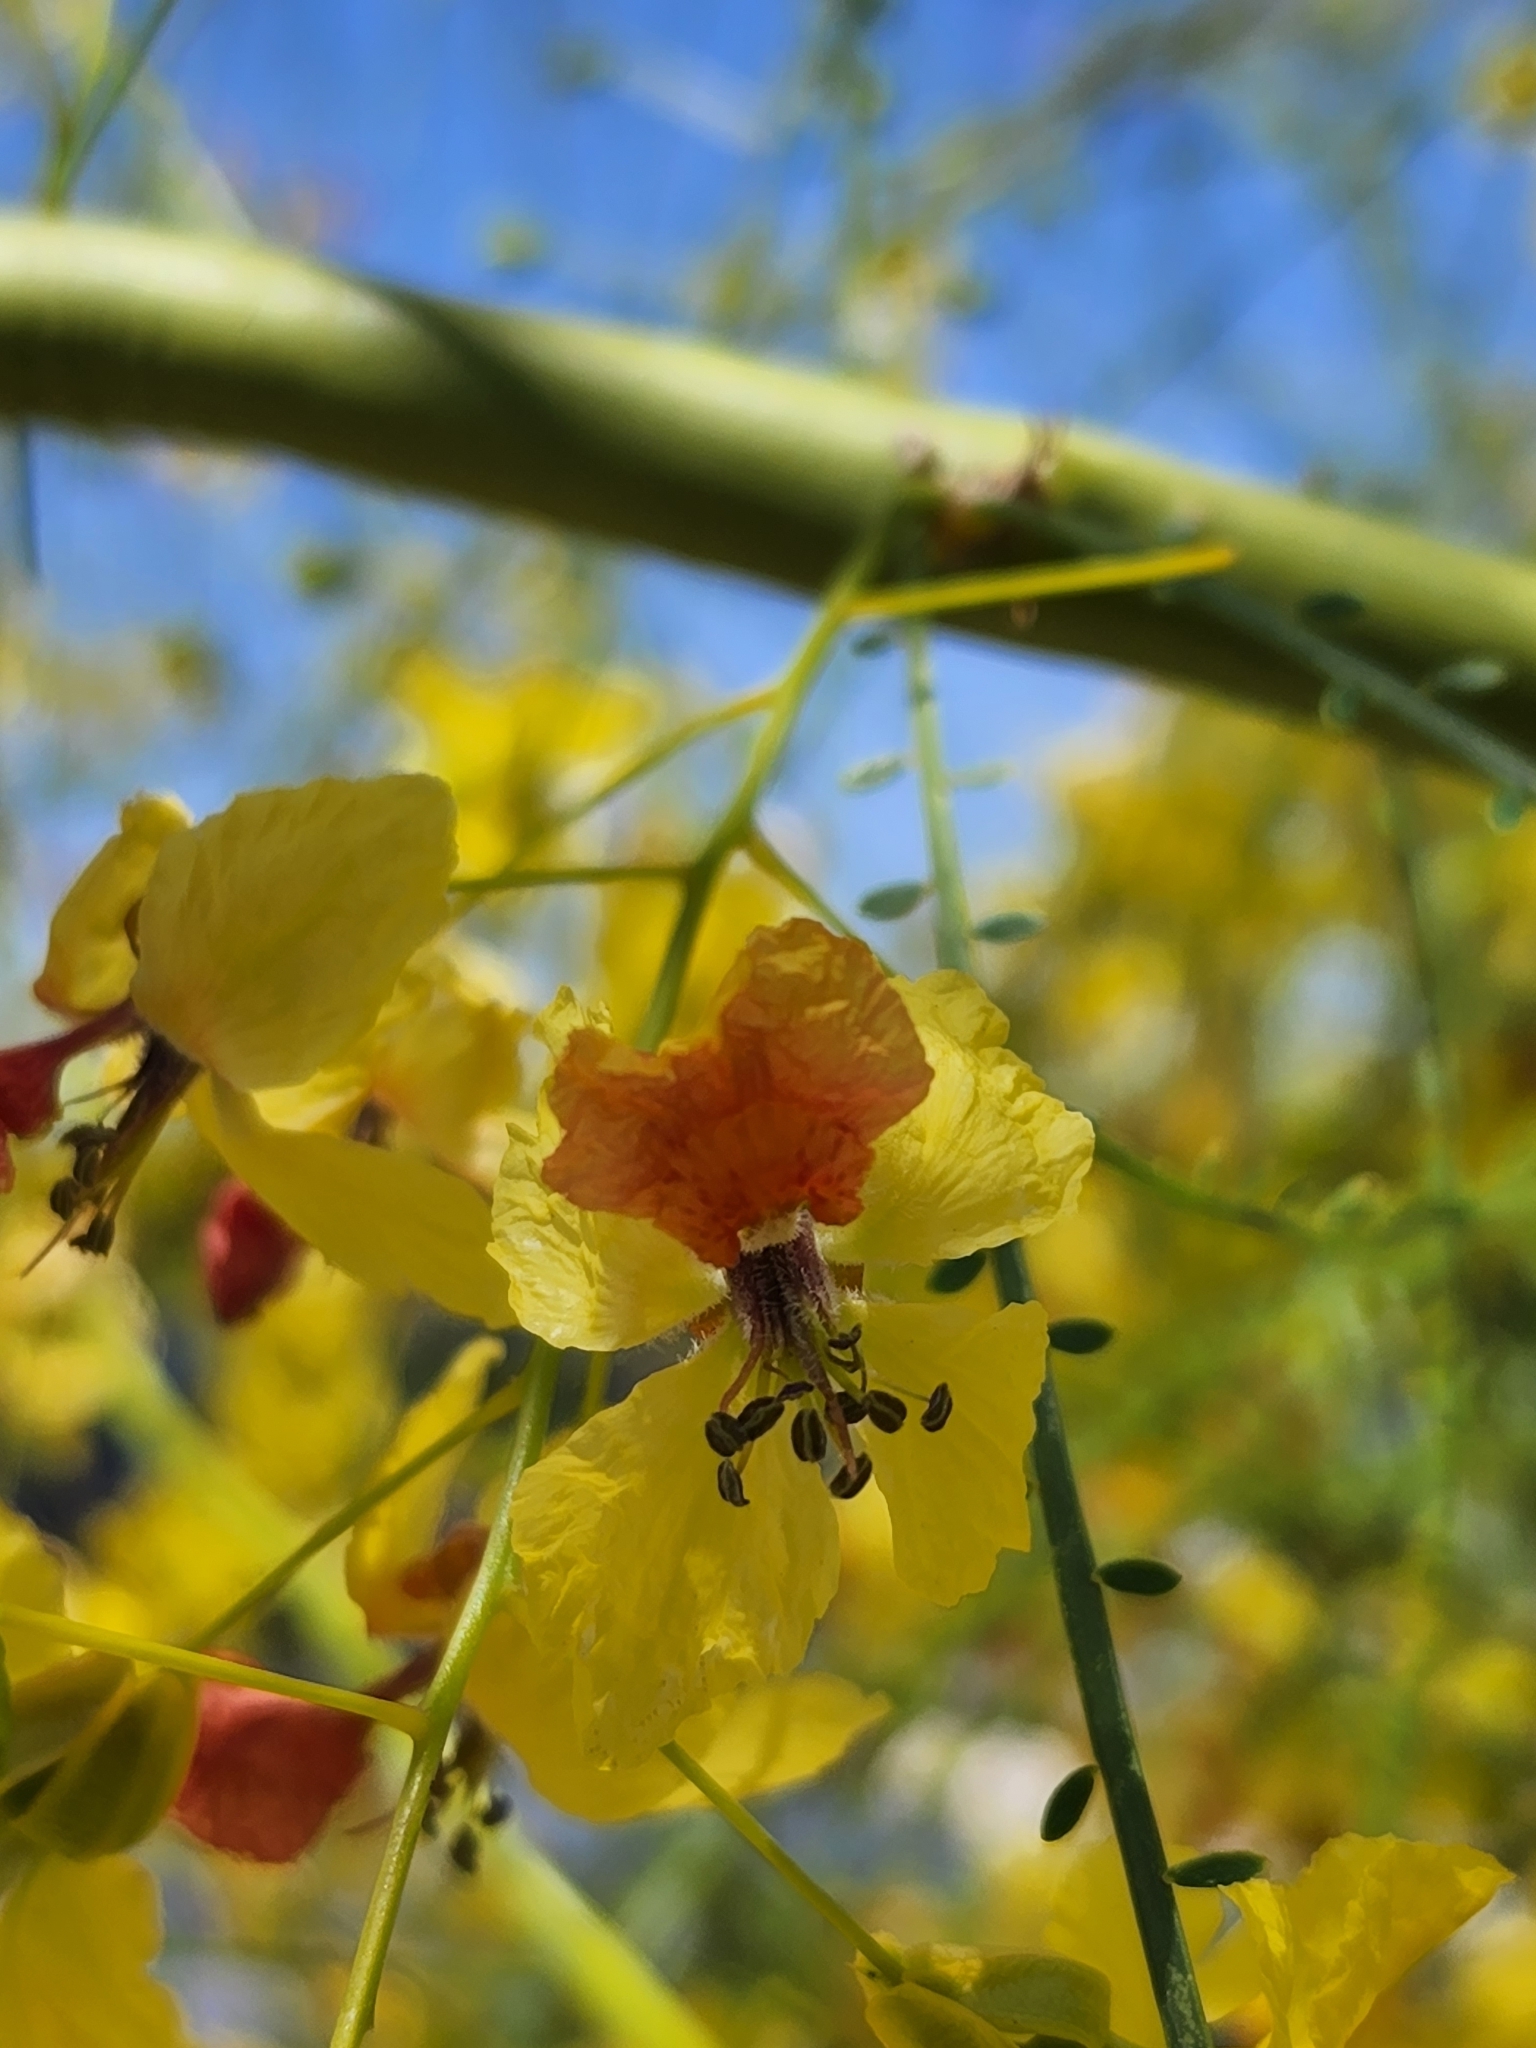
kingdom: Plantae
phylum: Tracheophyta
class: Magnoliopsida
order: Fabales
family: Fabaceae
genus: Parkinsonia
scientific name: Parkinsonia aculeata
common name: Jerusalem thorn
